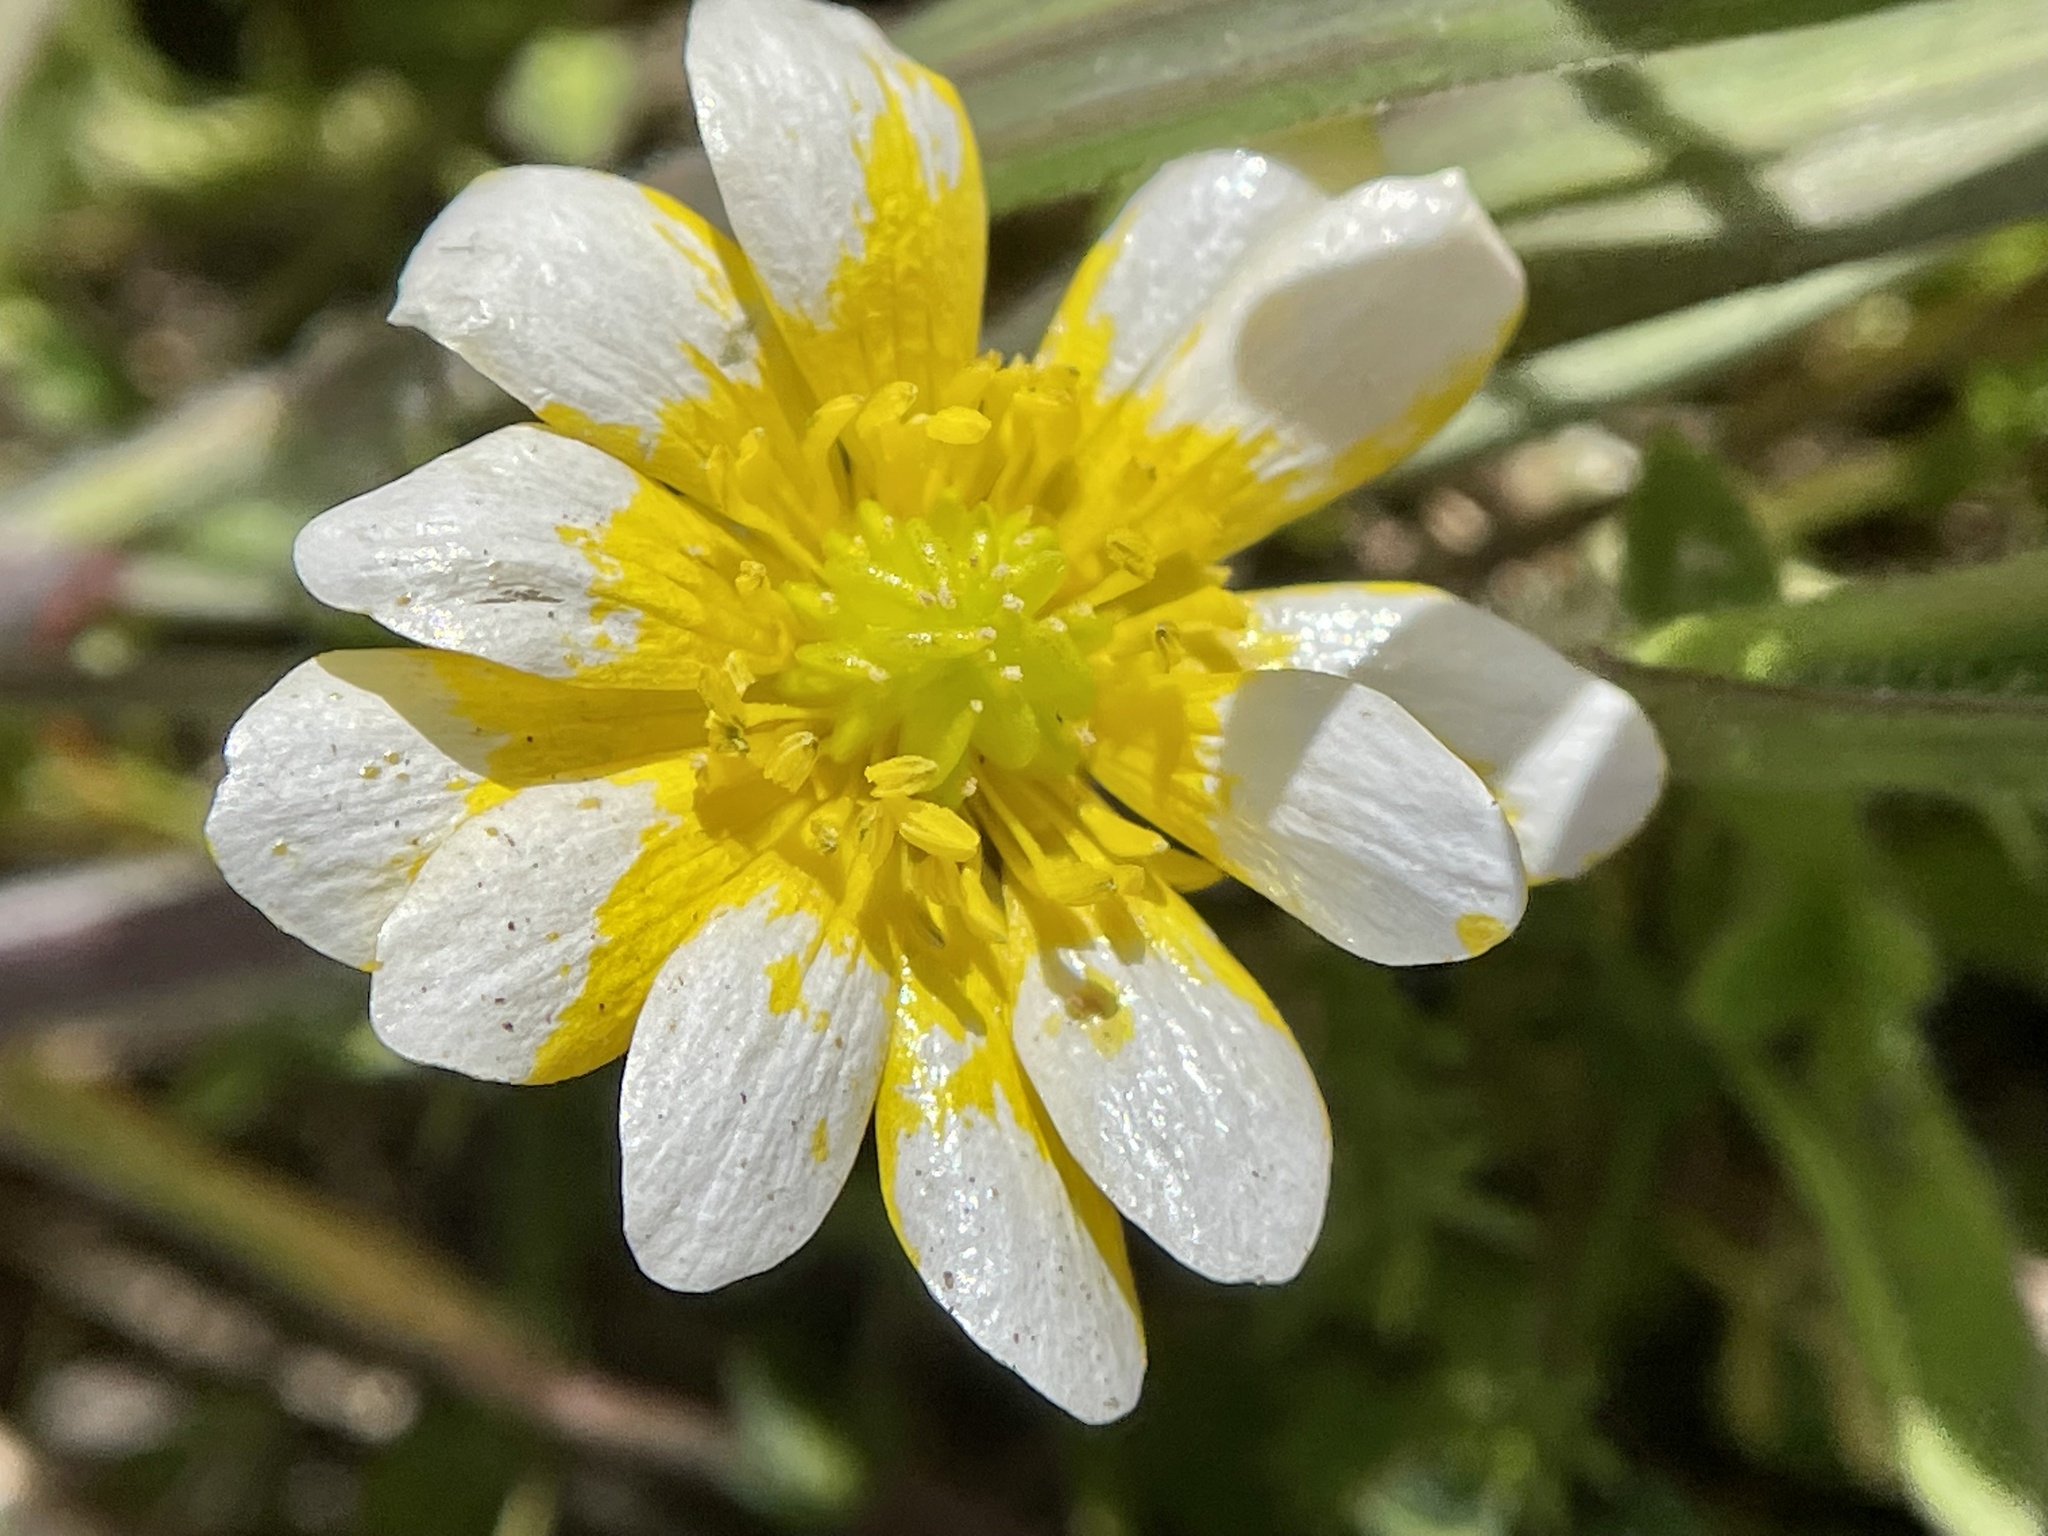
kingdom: Plantae
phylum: Tracheophyta
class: Magnoliopsida
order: Ranunculales
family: Ranunculaceae
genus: Ranunculus
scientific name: Ranunculus californicus
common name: California buttercup
